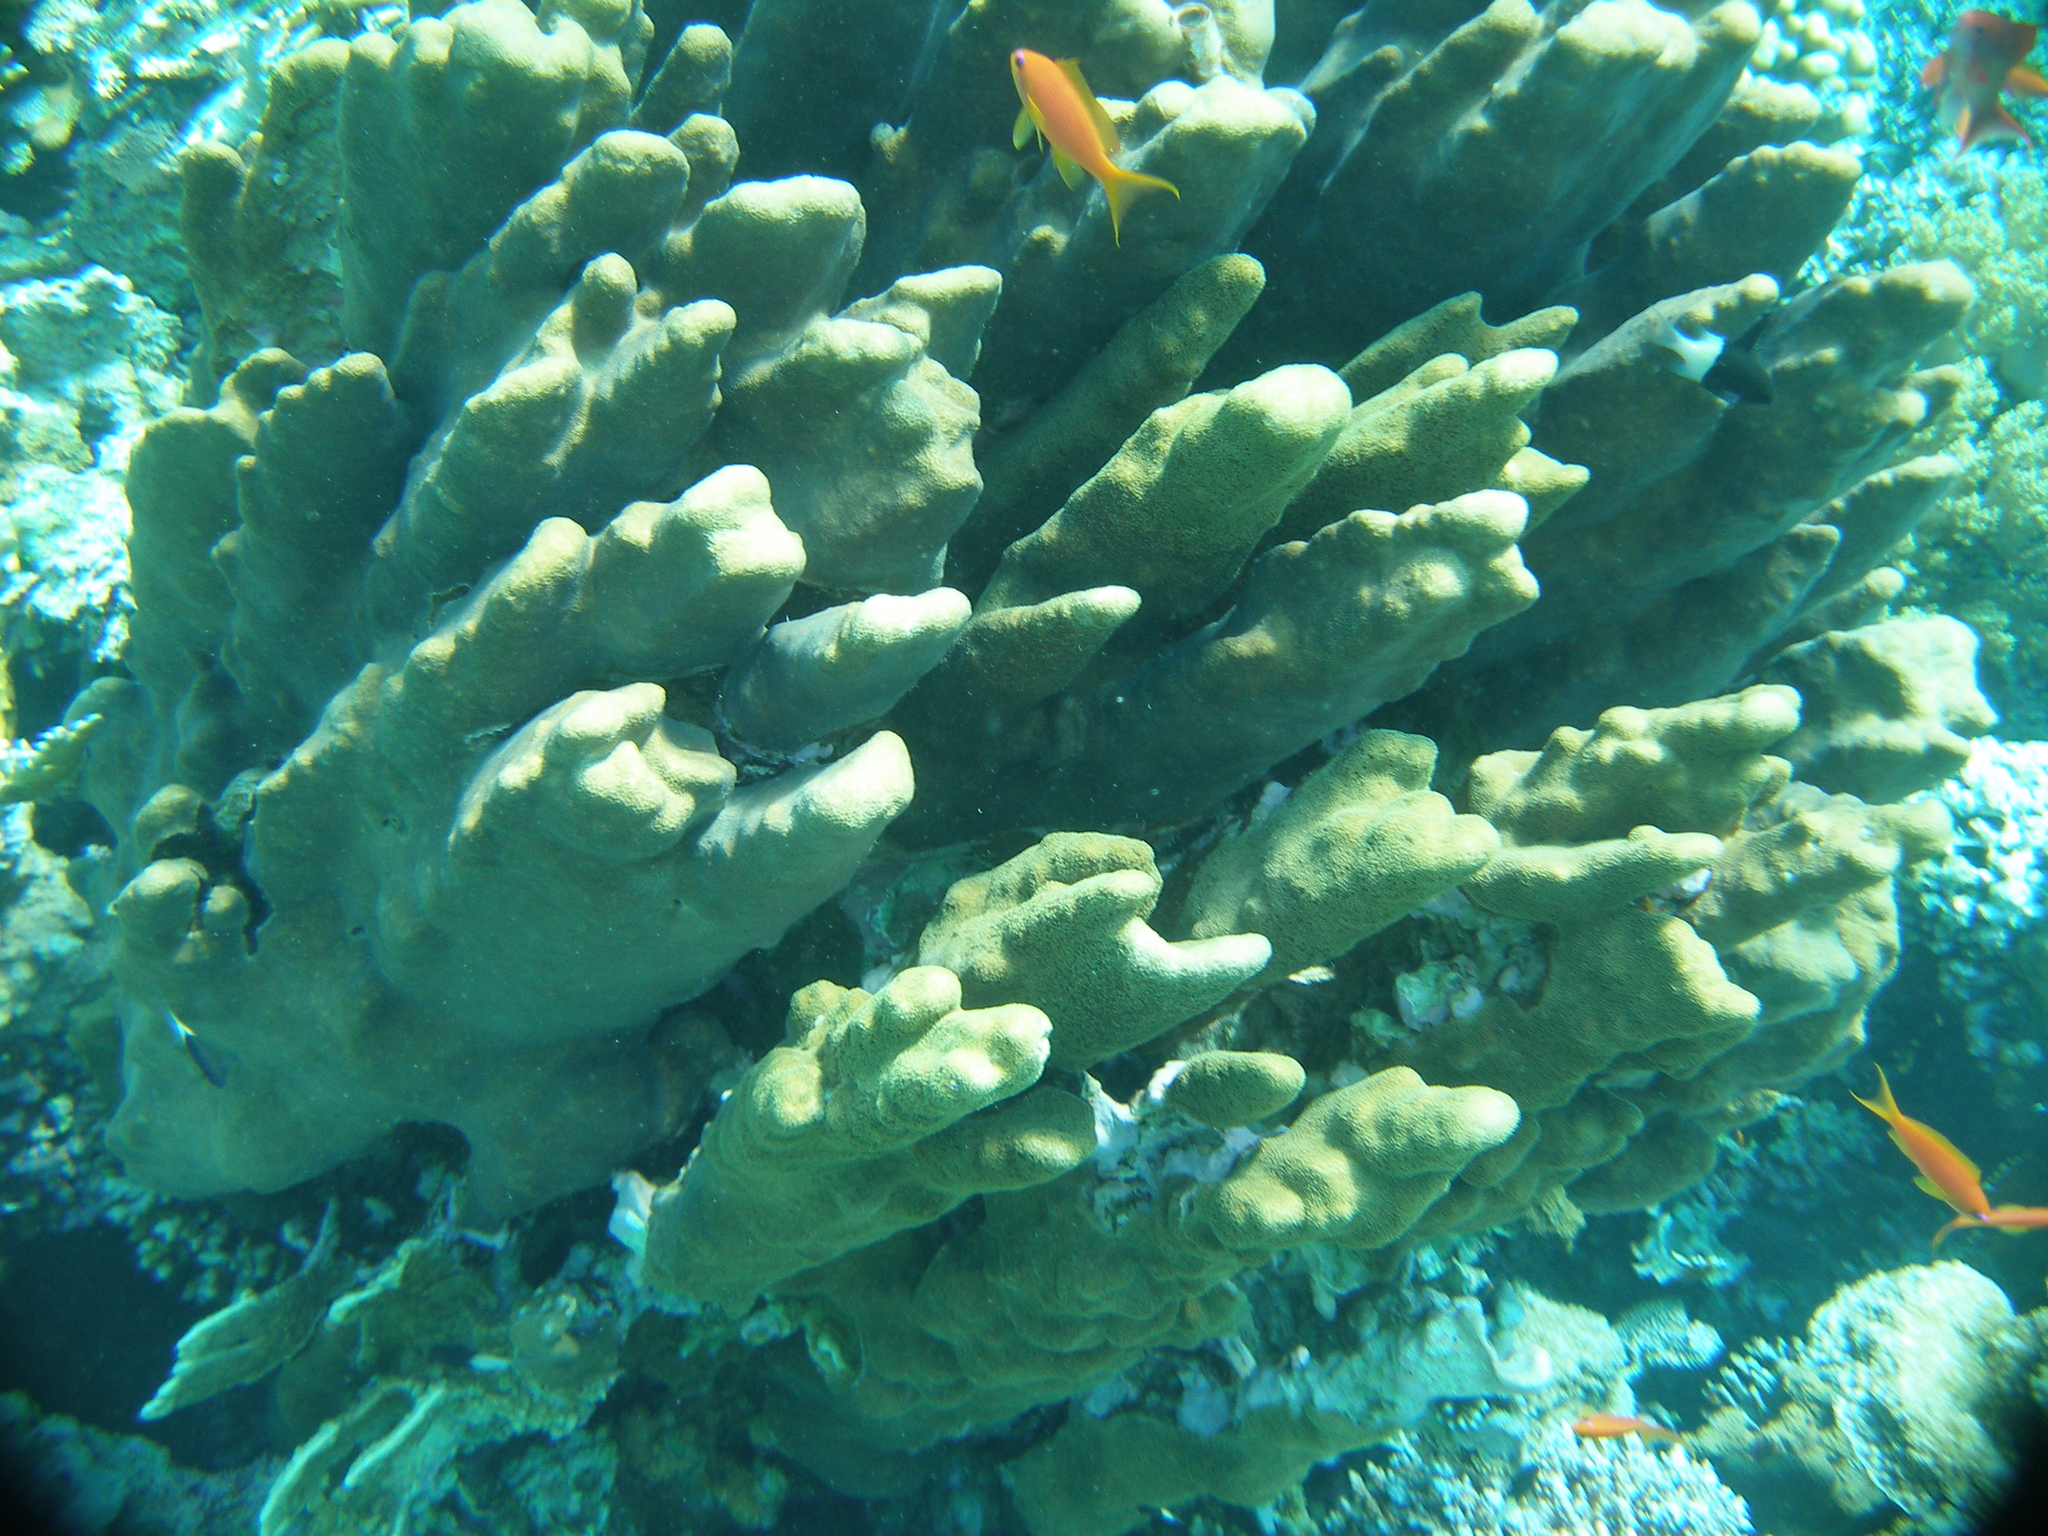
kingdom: Animalia
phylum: Cnidaria
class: Anthozoa
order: Scleractinia
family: Poritidae
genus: Porites
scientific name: Porites columnaris
